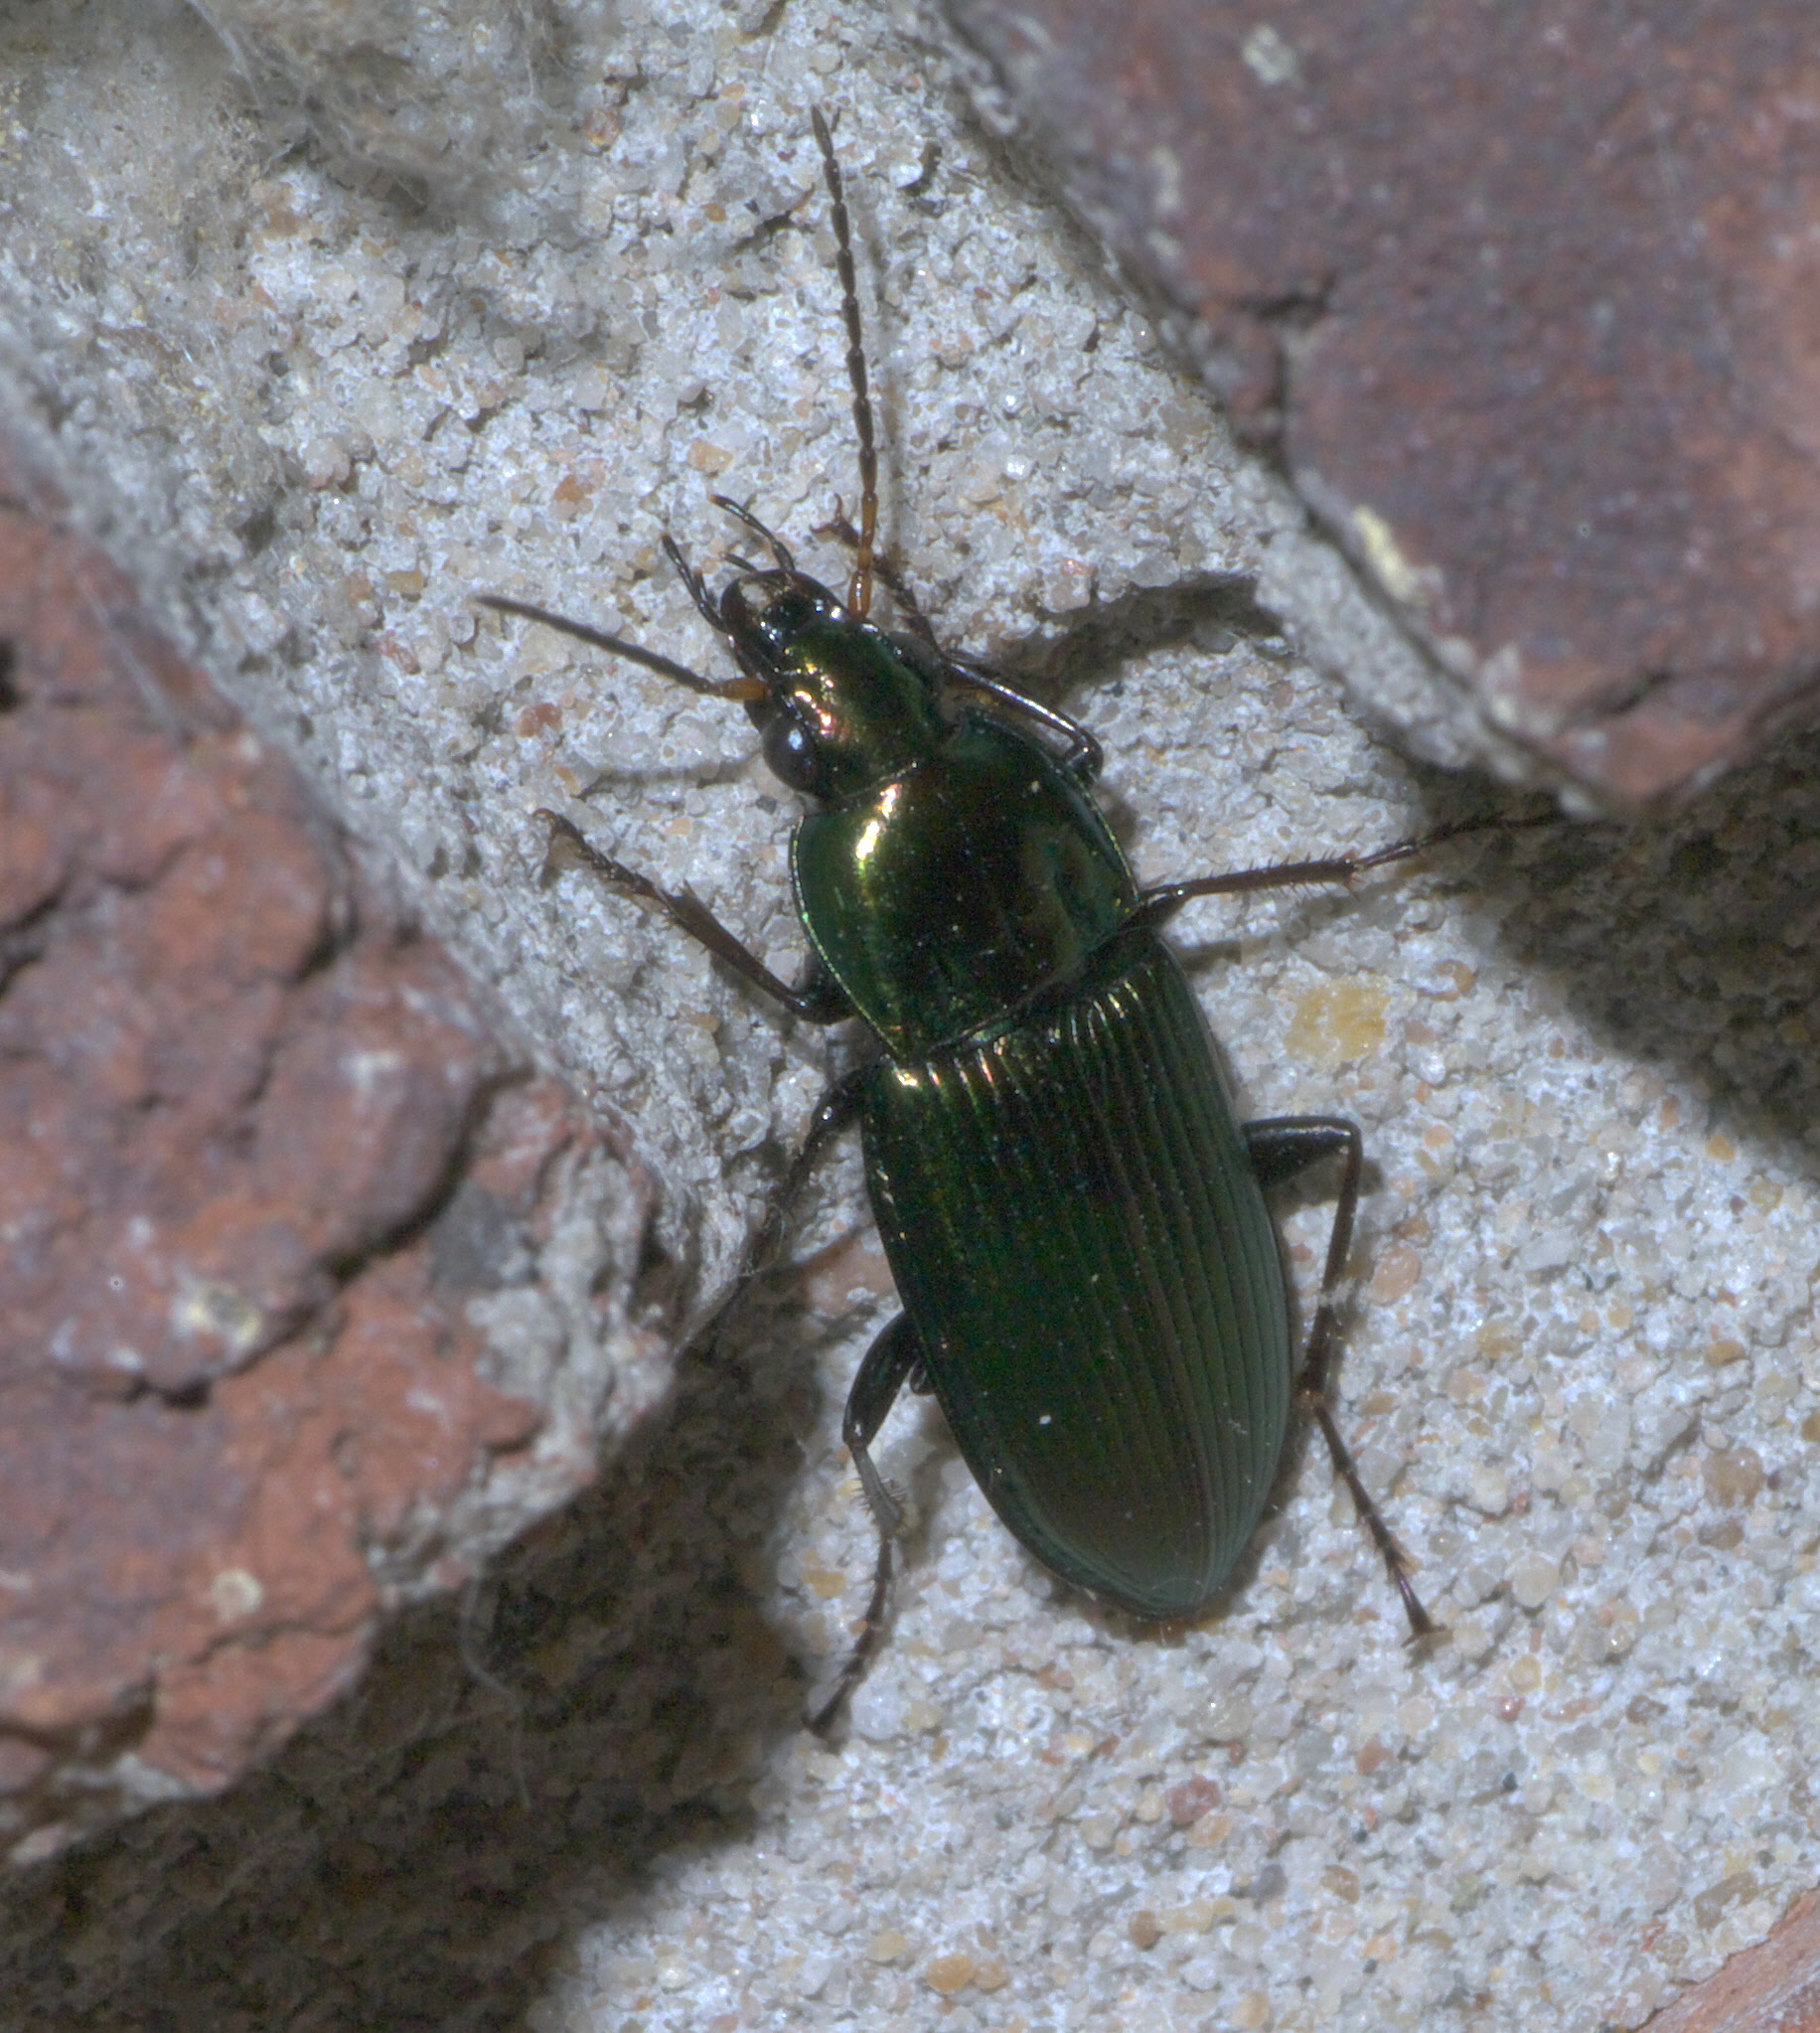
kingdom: Animalia
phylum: Arthropoda
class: Insecta
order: Coleoptera
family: Carabidae
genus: Poecilus
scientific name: Poecilus chalcites
